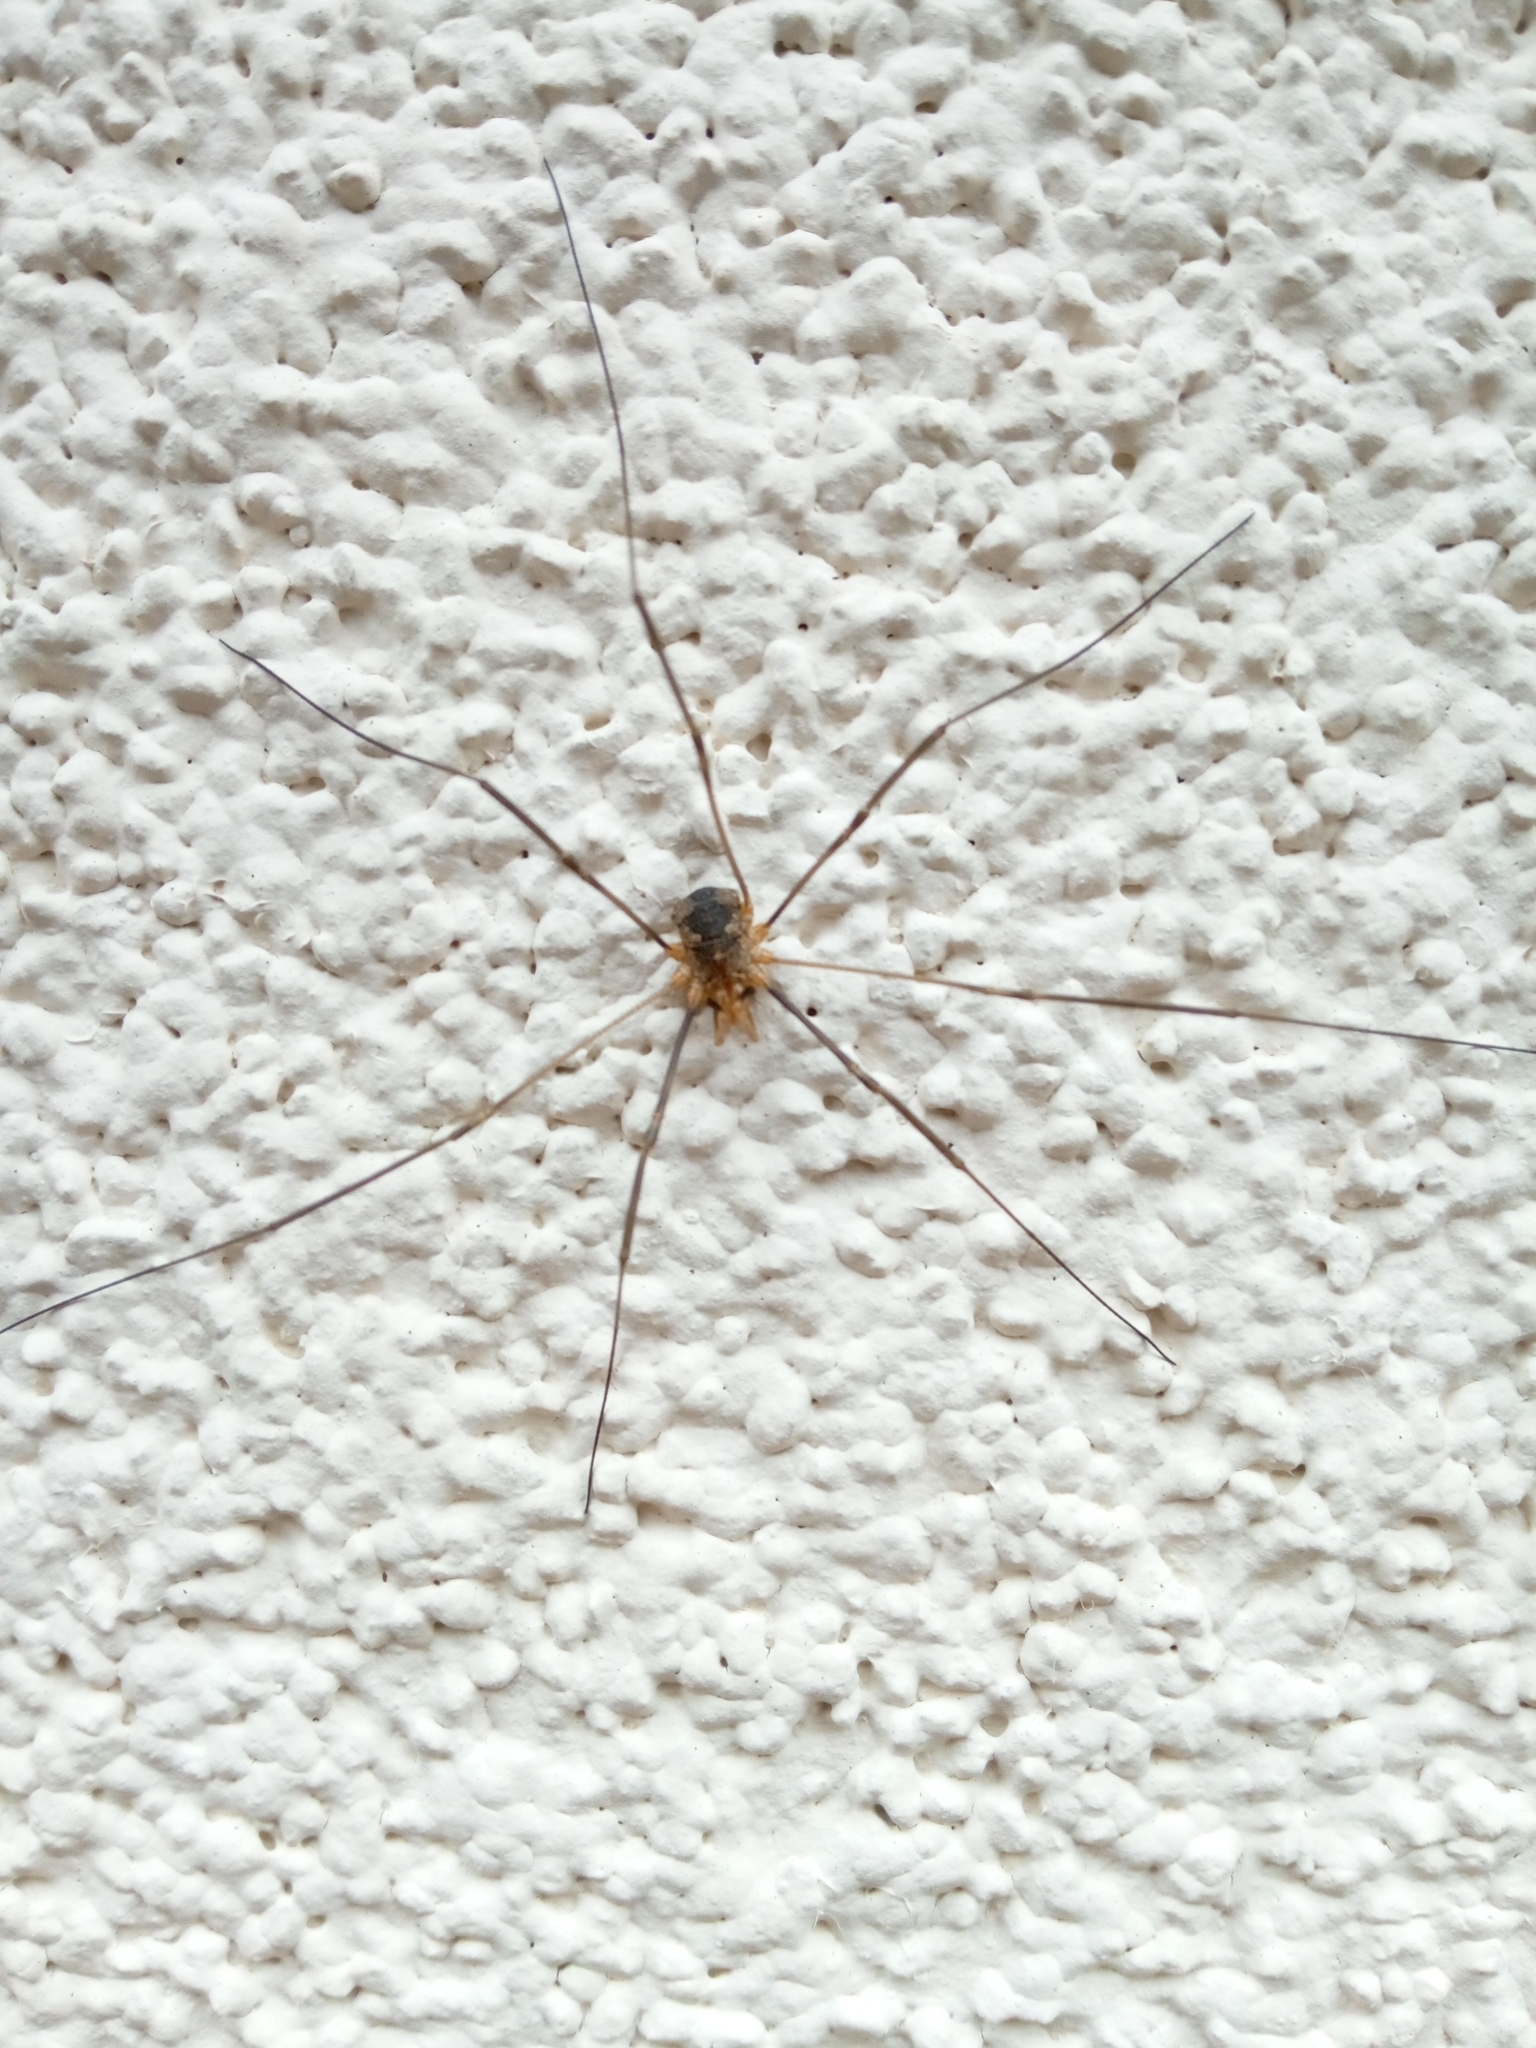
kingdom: Animalia
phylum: Arthropoda
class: Arachnida
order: Opiliones
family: Phalangiidae
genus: Phalangium
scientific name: Phalangium opilio
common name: Daddy longleg
